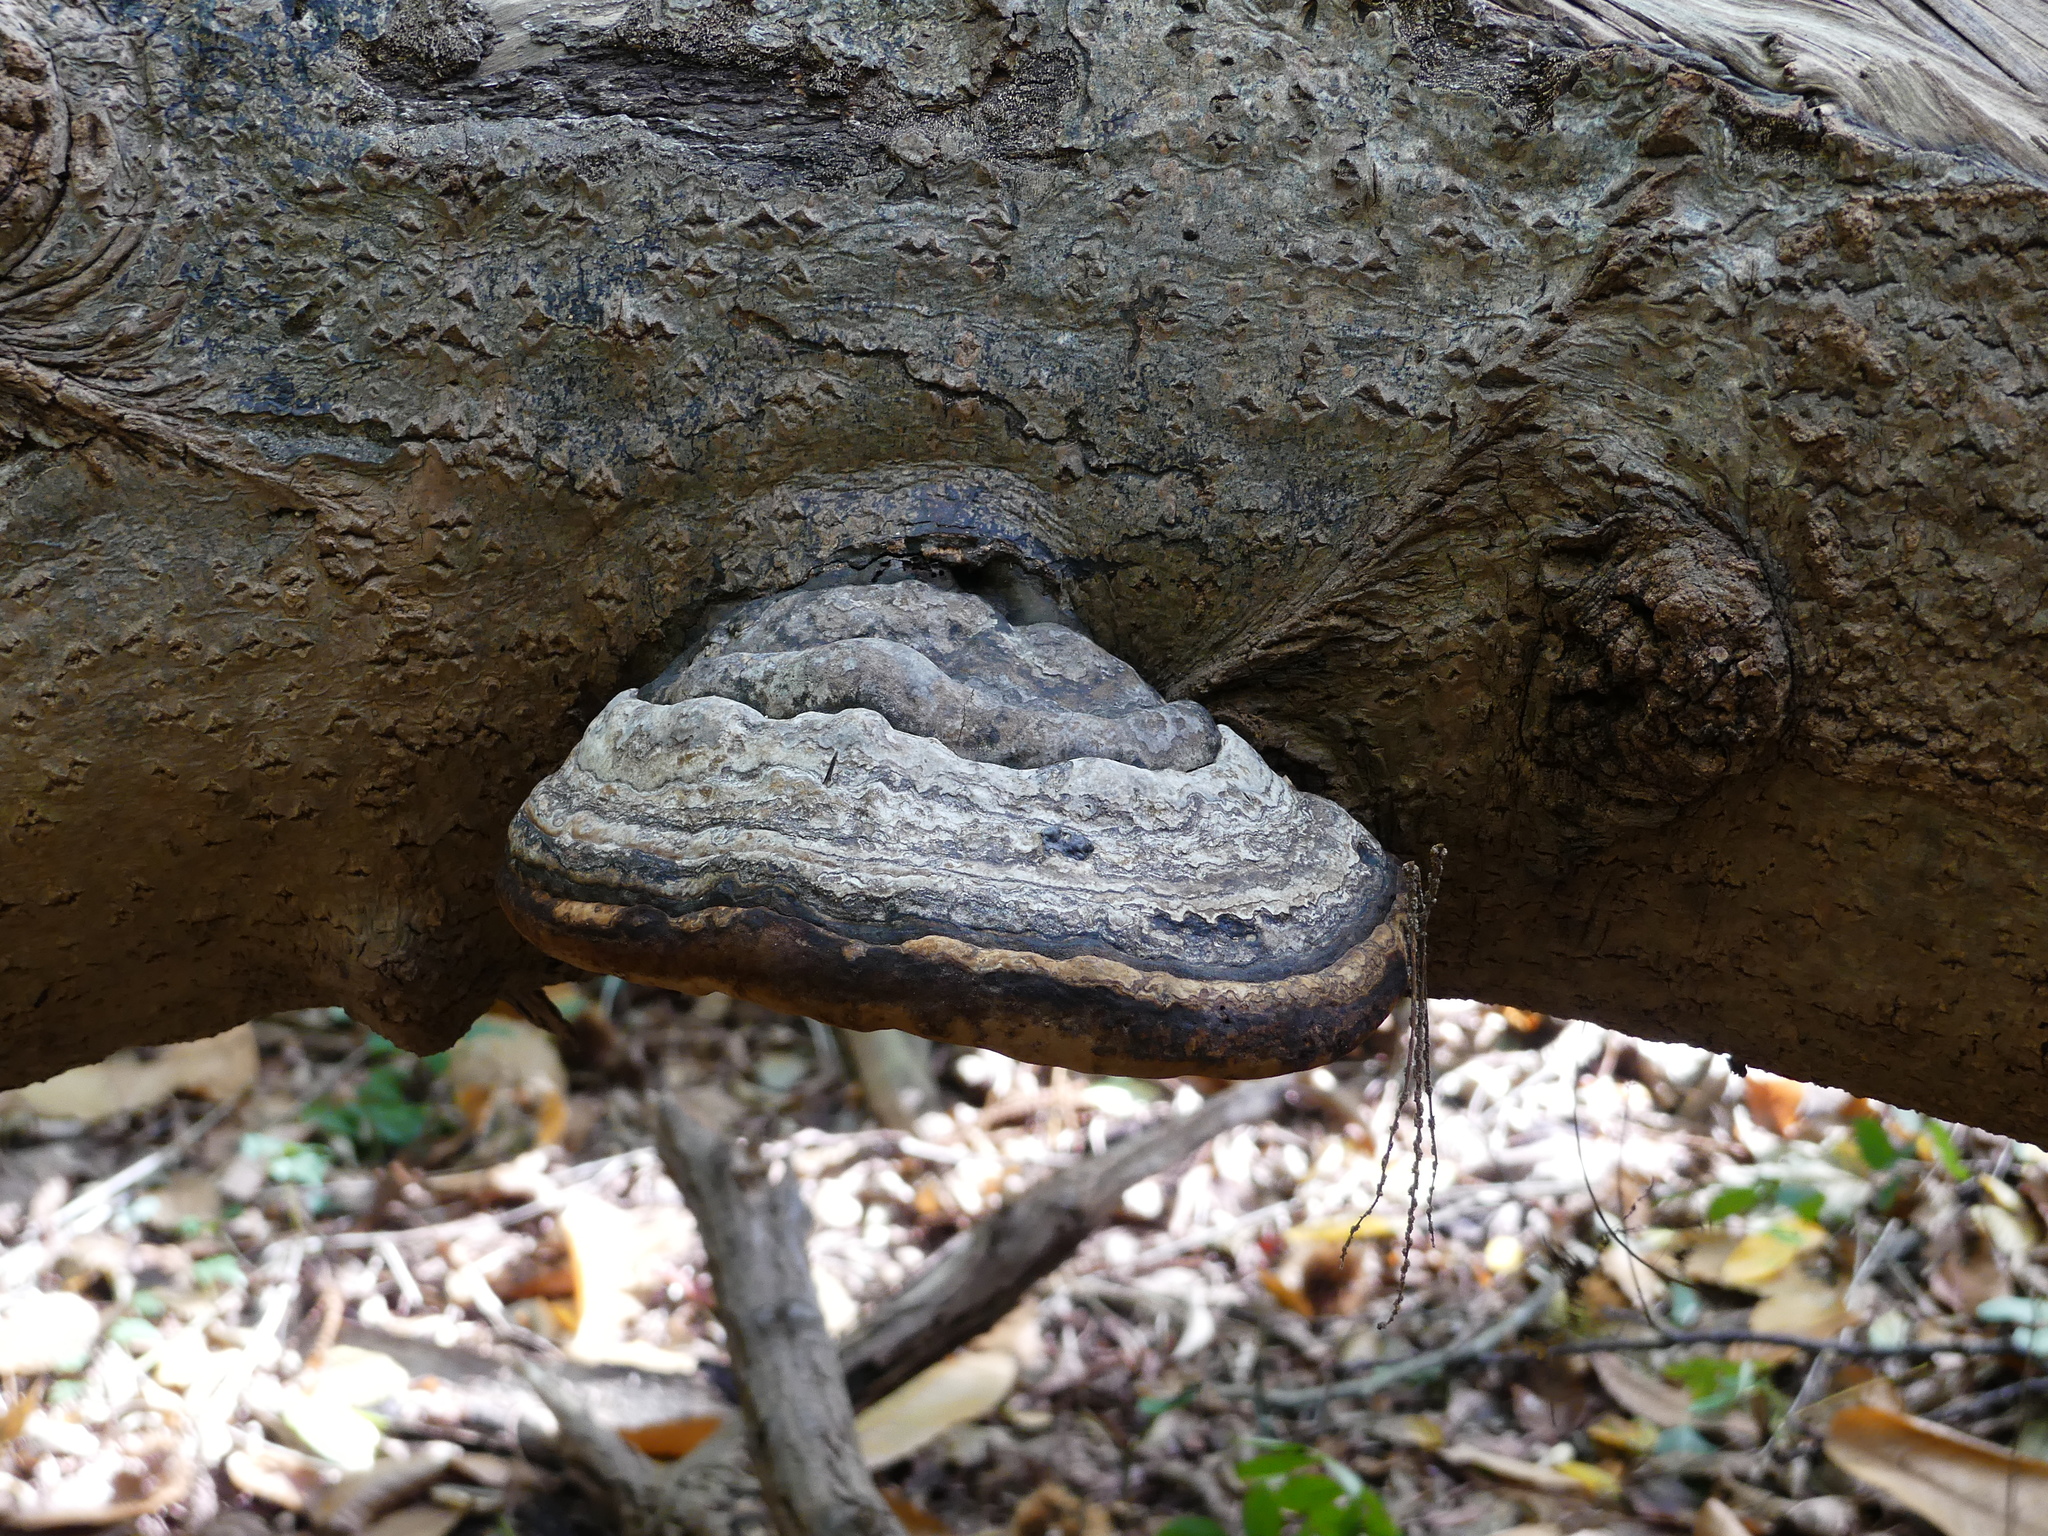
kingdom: Fungi
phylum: Basidiomycota
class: Agaricomycetes
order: Polyporales
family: Polyporaceae
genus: Fomes
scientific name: Fomes fomentarius
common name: Hoof fungus
